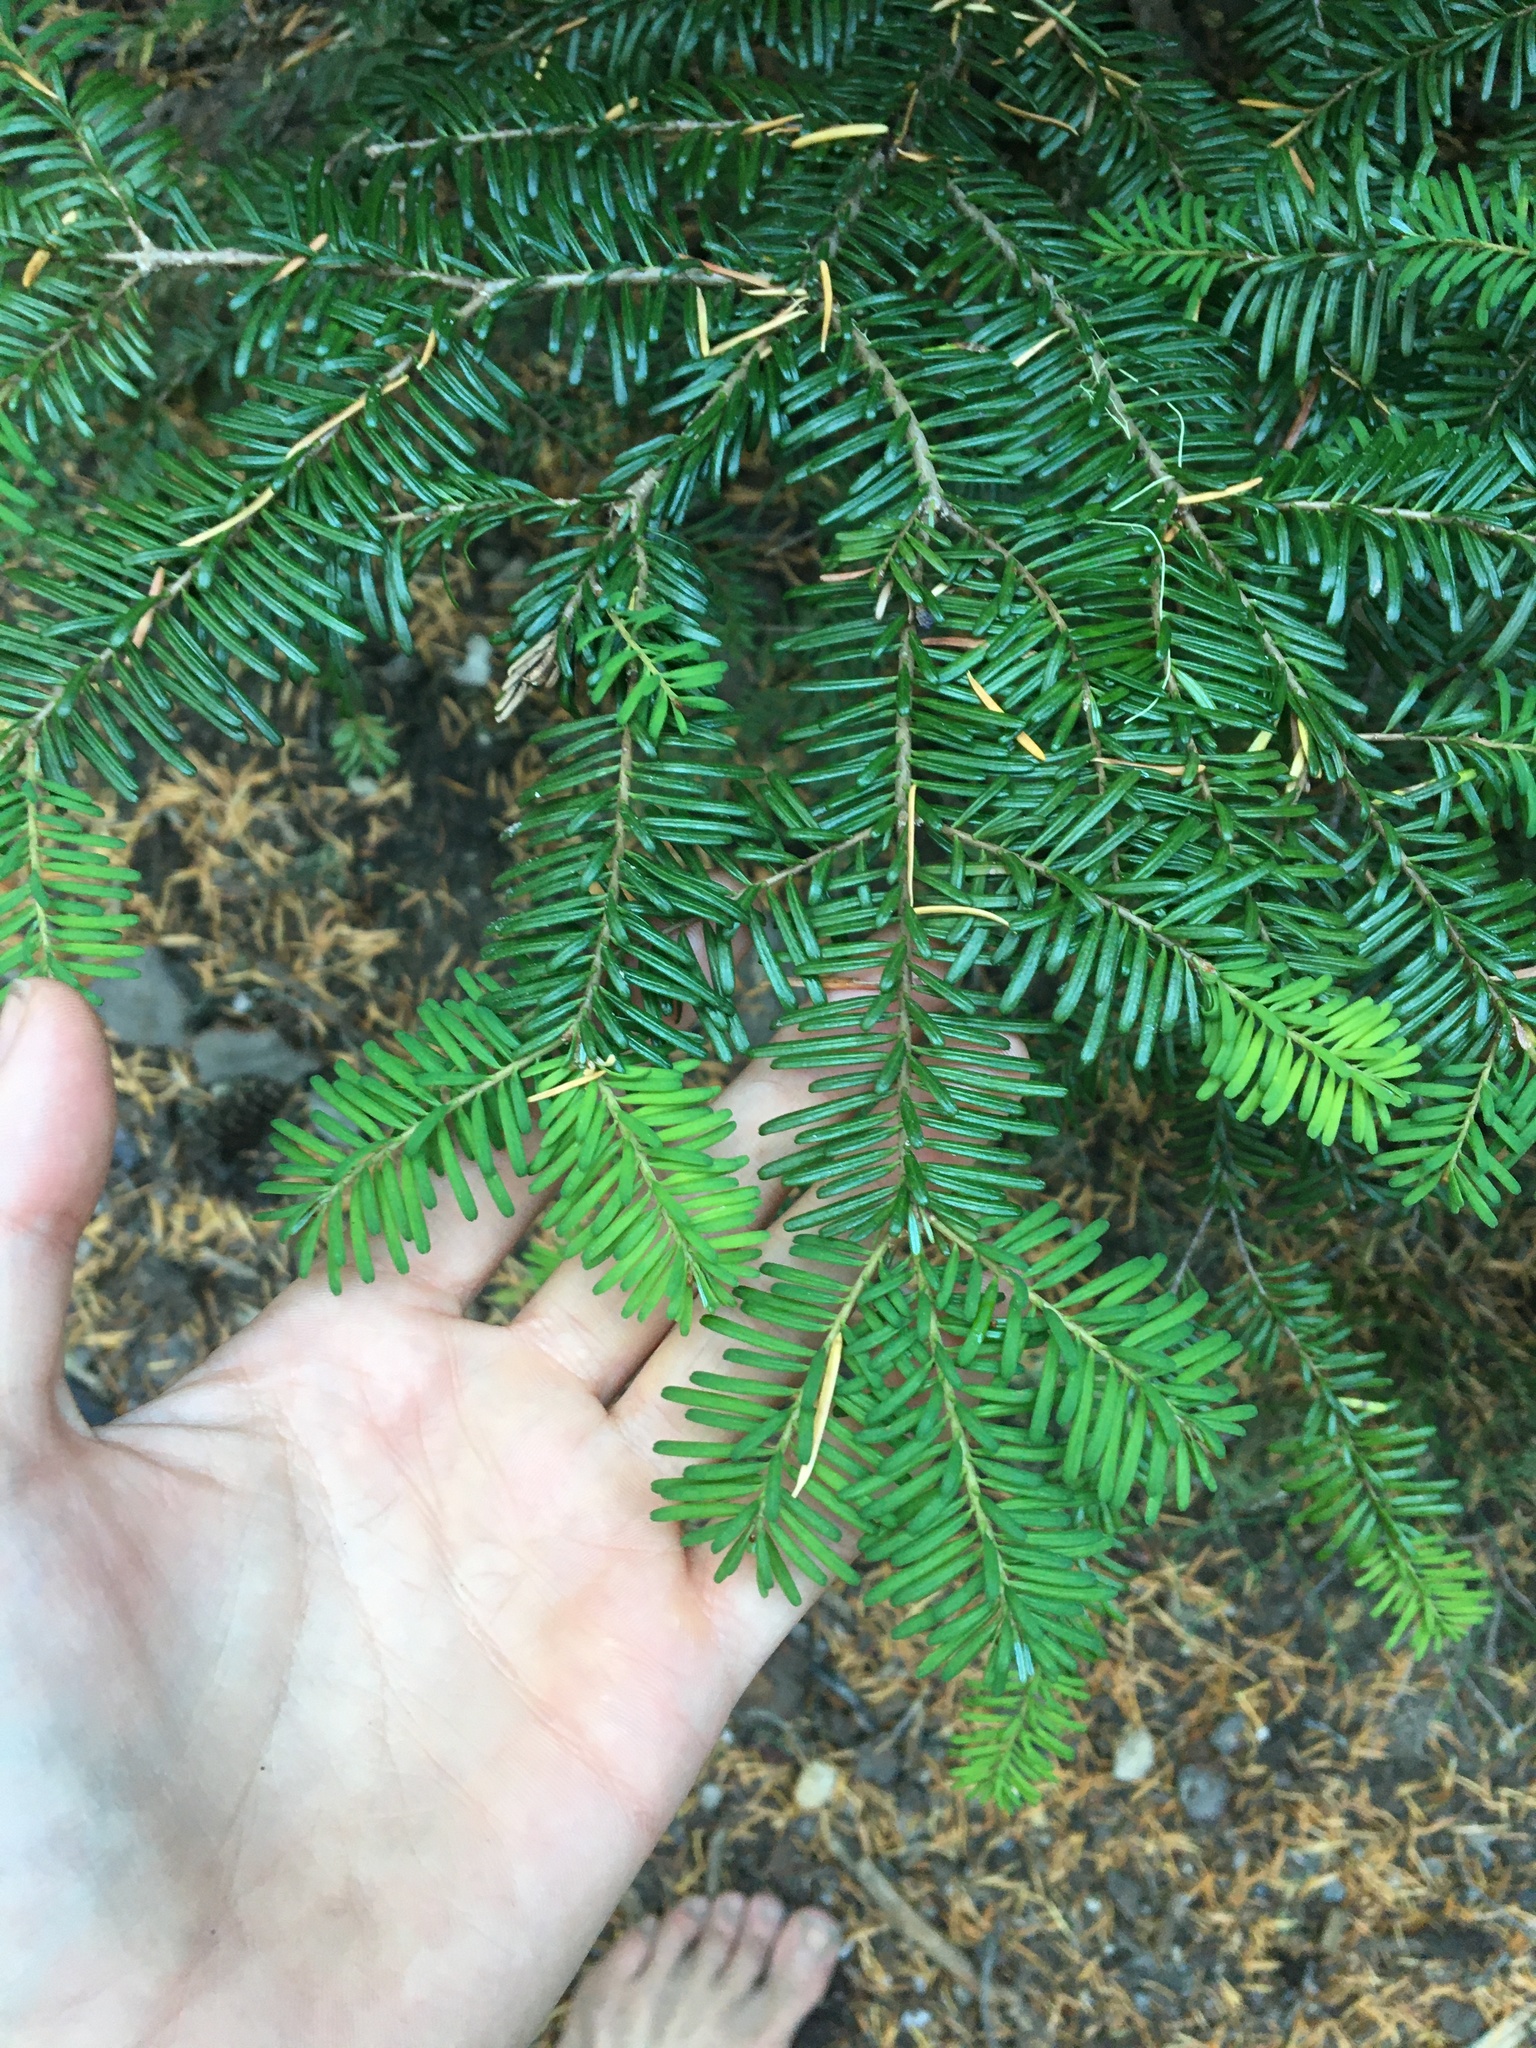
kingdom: Plantae
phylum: Tracheophyta
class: Pinopsida
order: Pinales
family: Pinaceae
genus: Abies
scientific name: Abies amabilis
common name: Pacific silver fir
